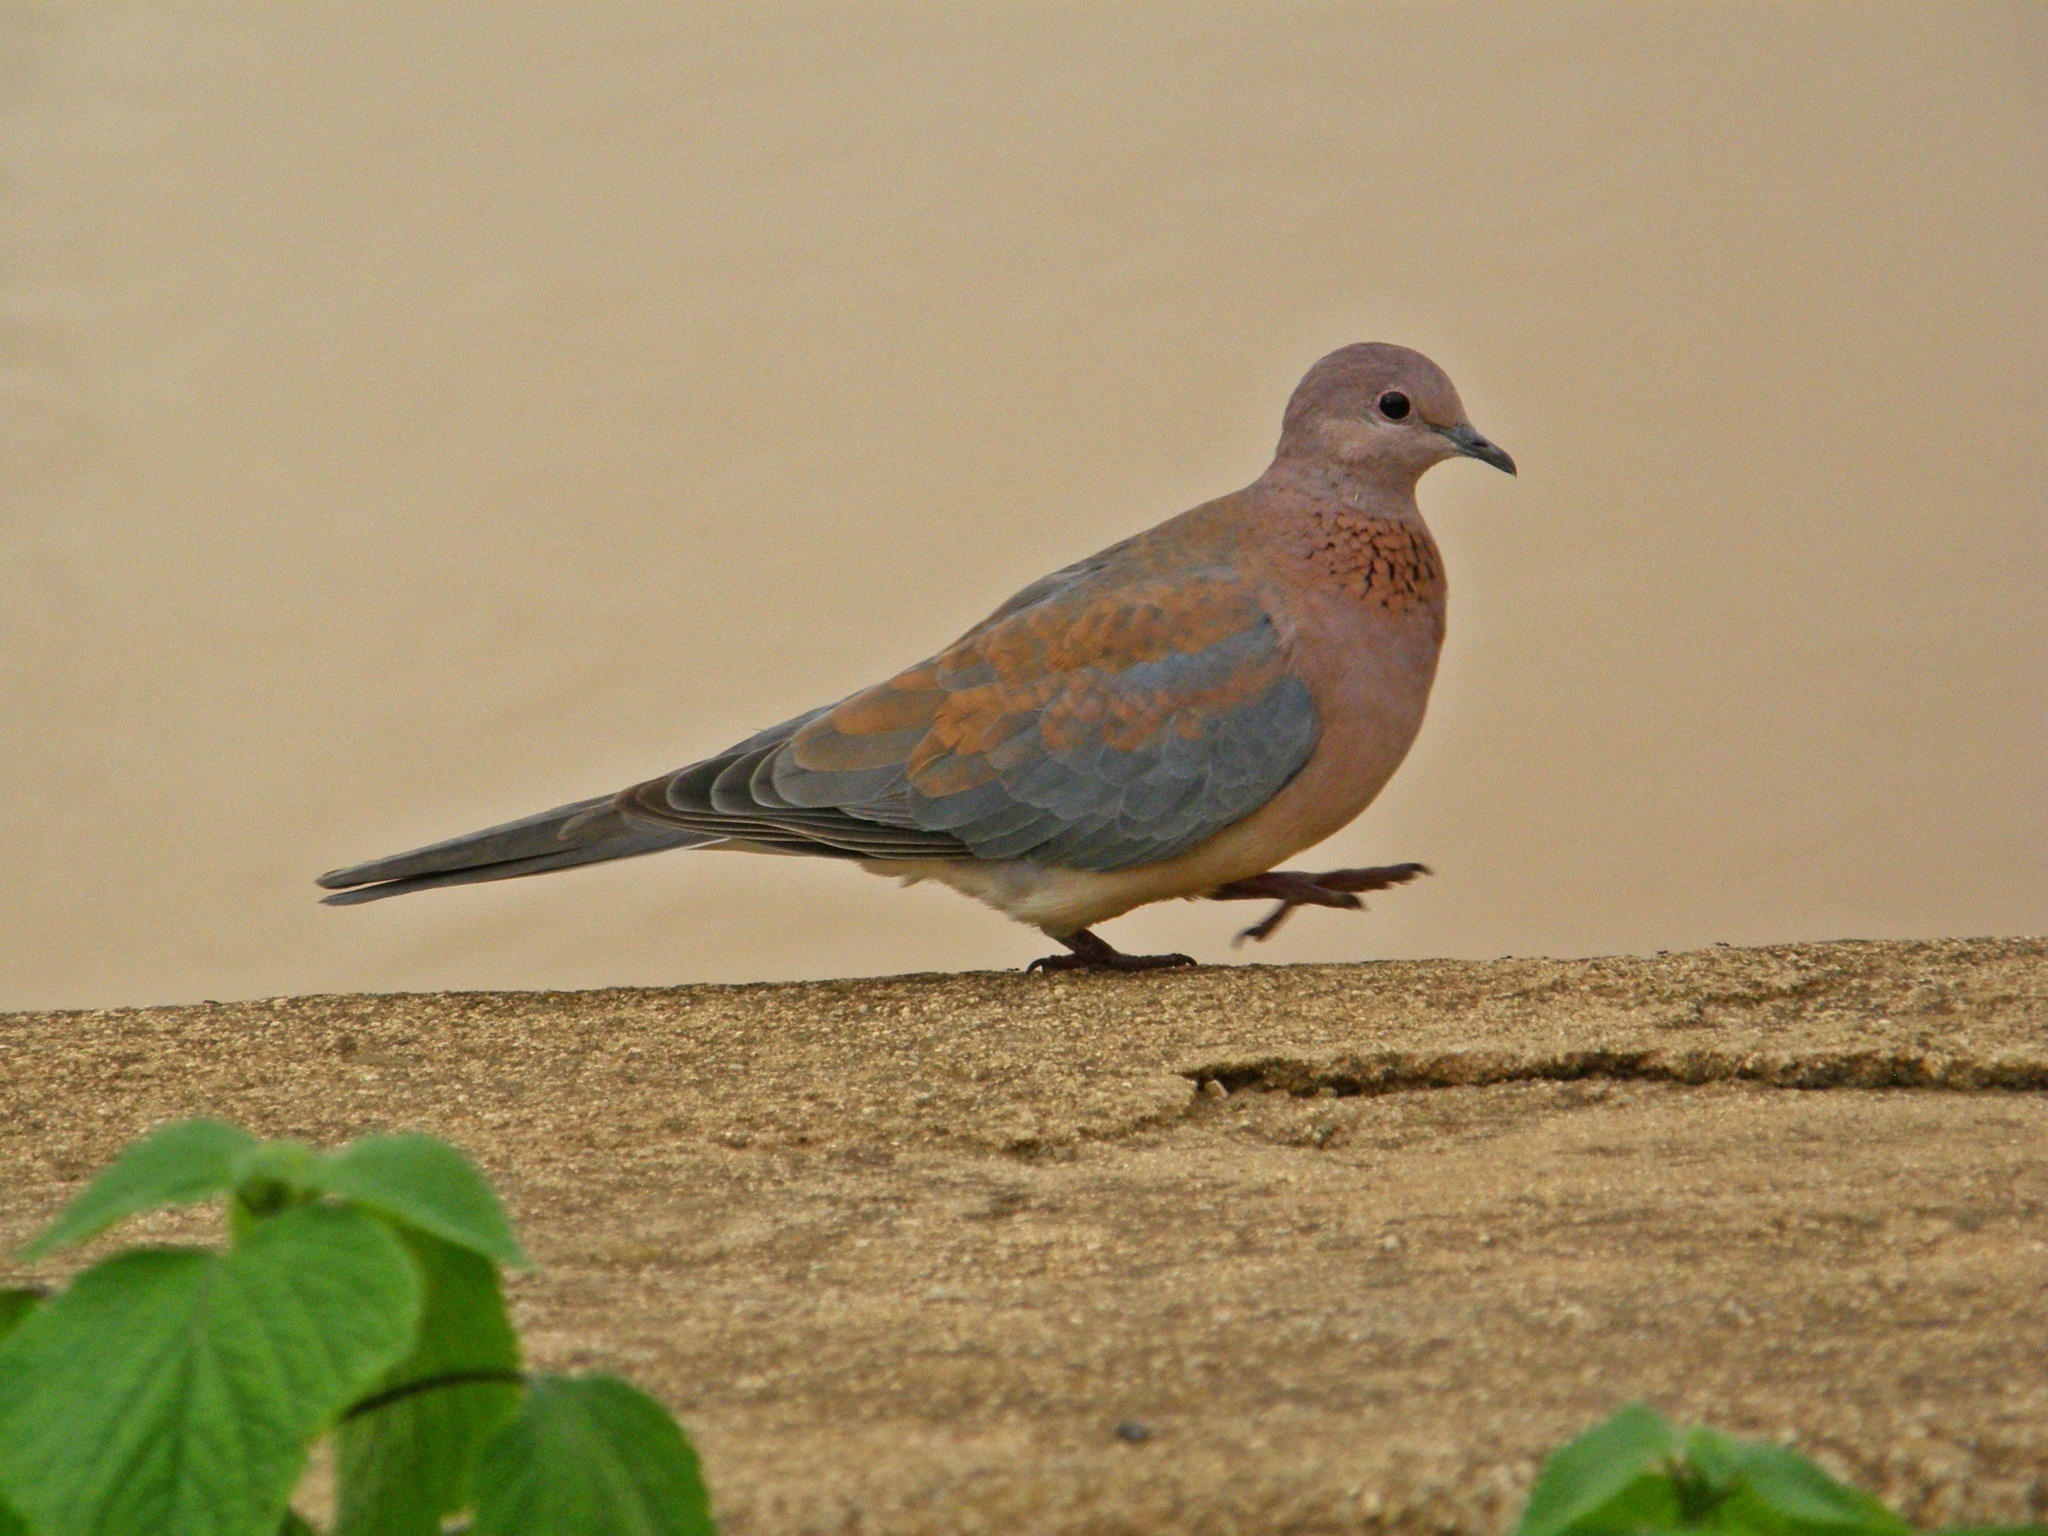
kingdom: Animalia
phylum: Chordata
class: Aves
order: Columbiformes
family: Columbidae
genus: Spilopelia
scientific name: Spilopelia senegalensis
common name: Laughing dove
